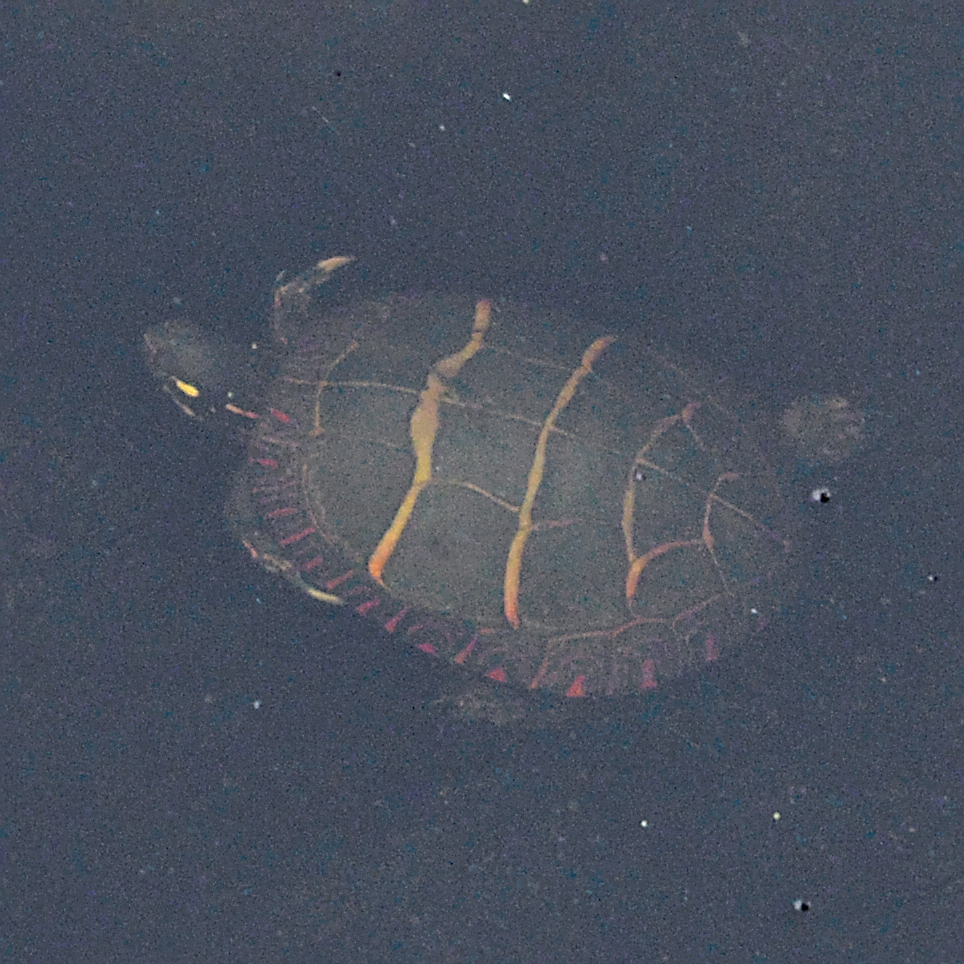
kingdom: Animalia
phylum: Chordata
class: Testudines
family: Emydidae
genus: Chrysemys
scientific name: Chrysemys picta
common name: Painted turtle
